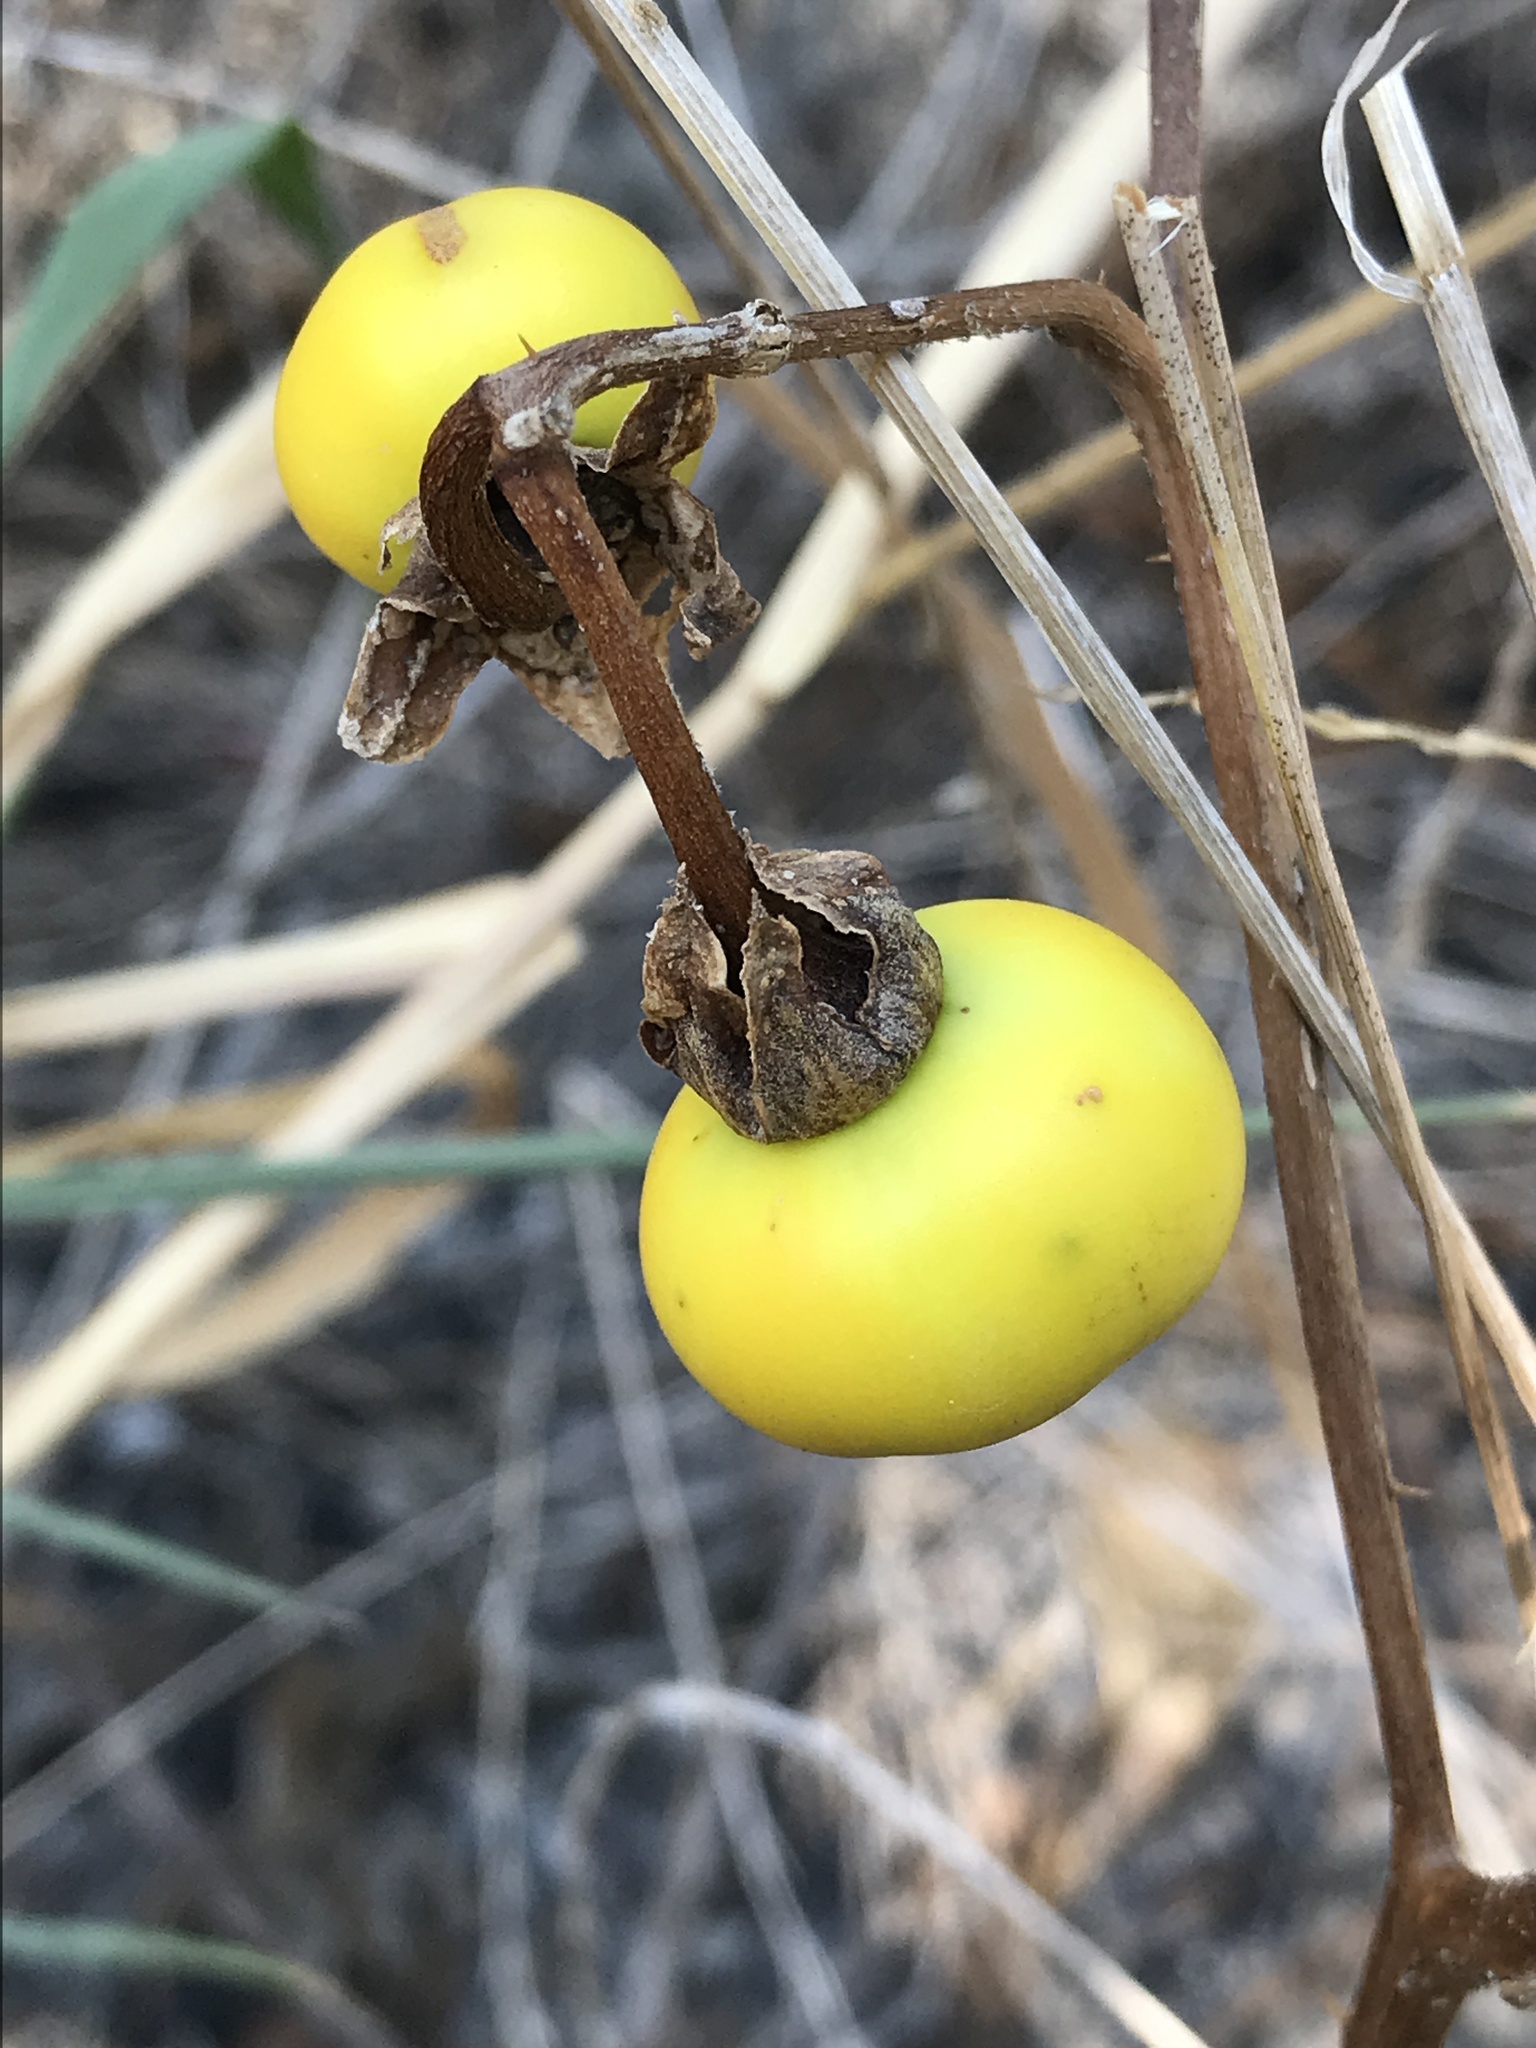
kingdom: Plantae
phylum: Tracheophyta
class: Magnoliopsida
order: Solanales
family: Solanaceae
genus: Solanum
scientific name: Solanum dimidiatum
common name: Carolina horse-nettle
